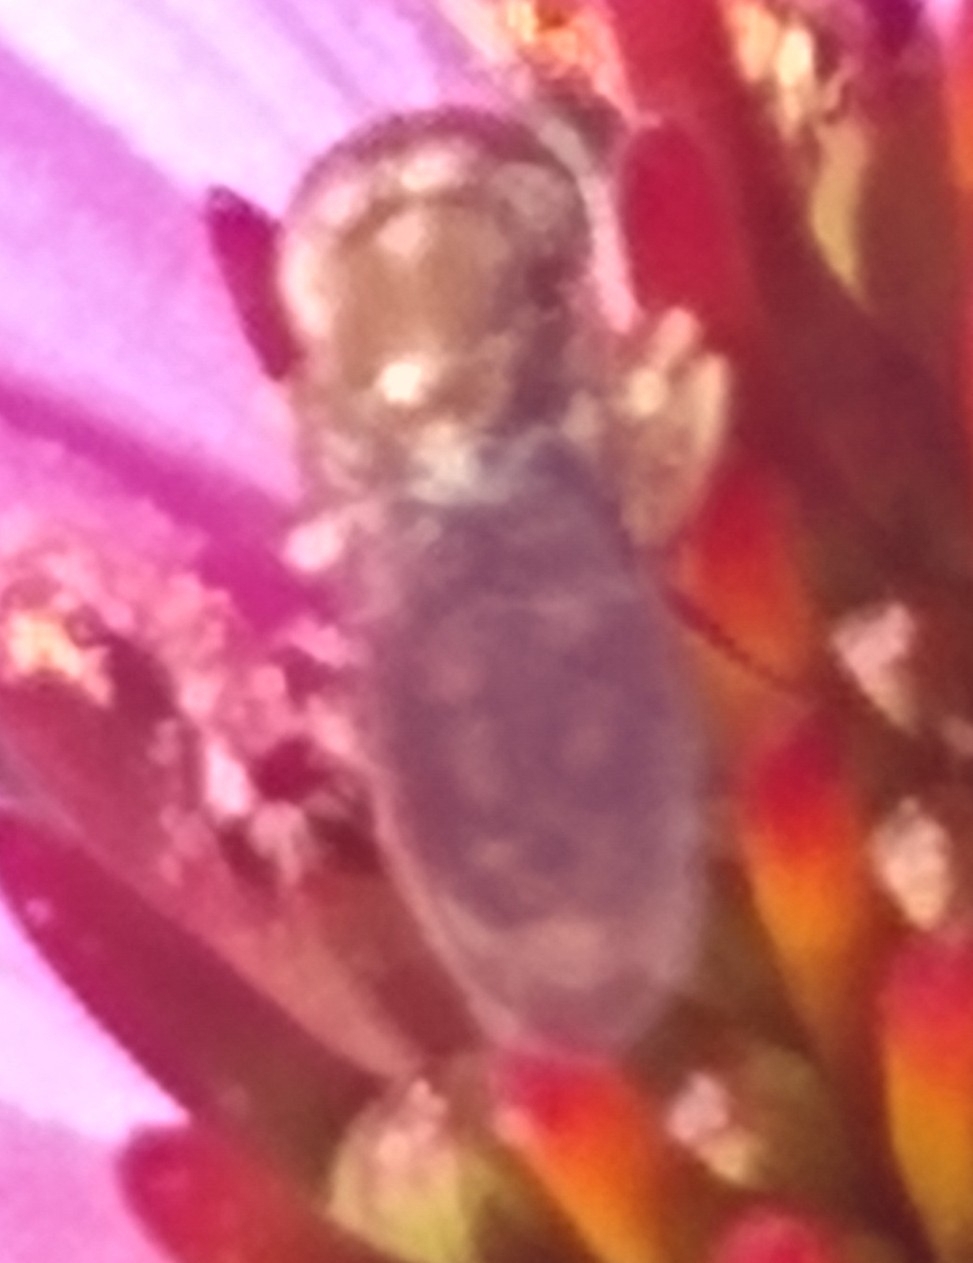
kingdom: Animalia
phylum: Arthropoda
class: Insecta
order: Diptera
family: Syrphidae
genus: Toxomerus
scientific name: Toxomerus marginatus
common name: Syrphid fly
